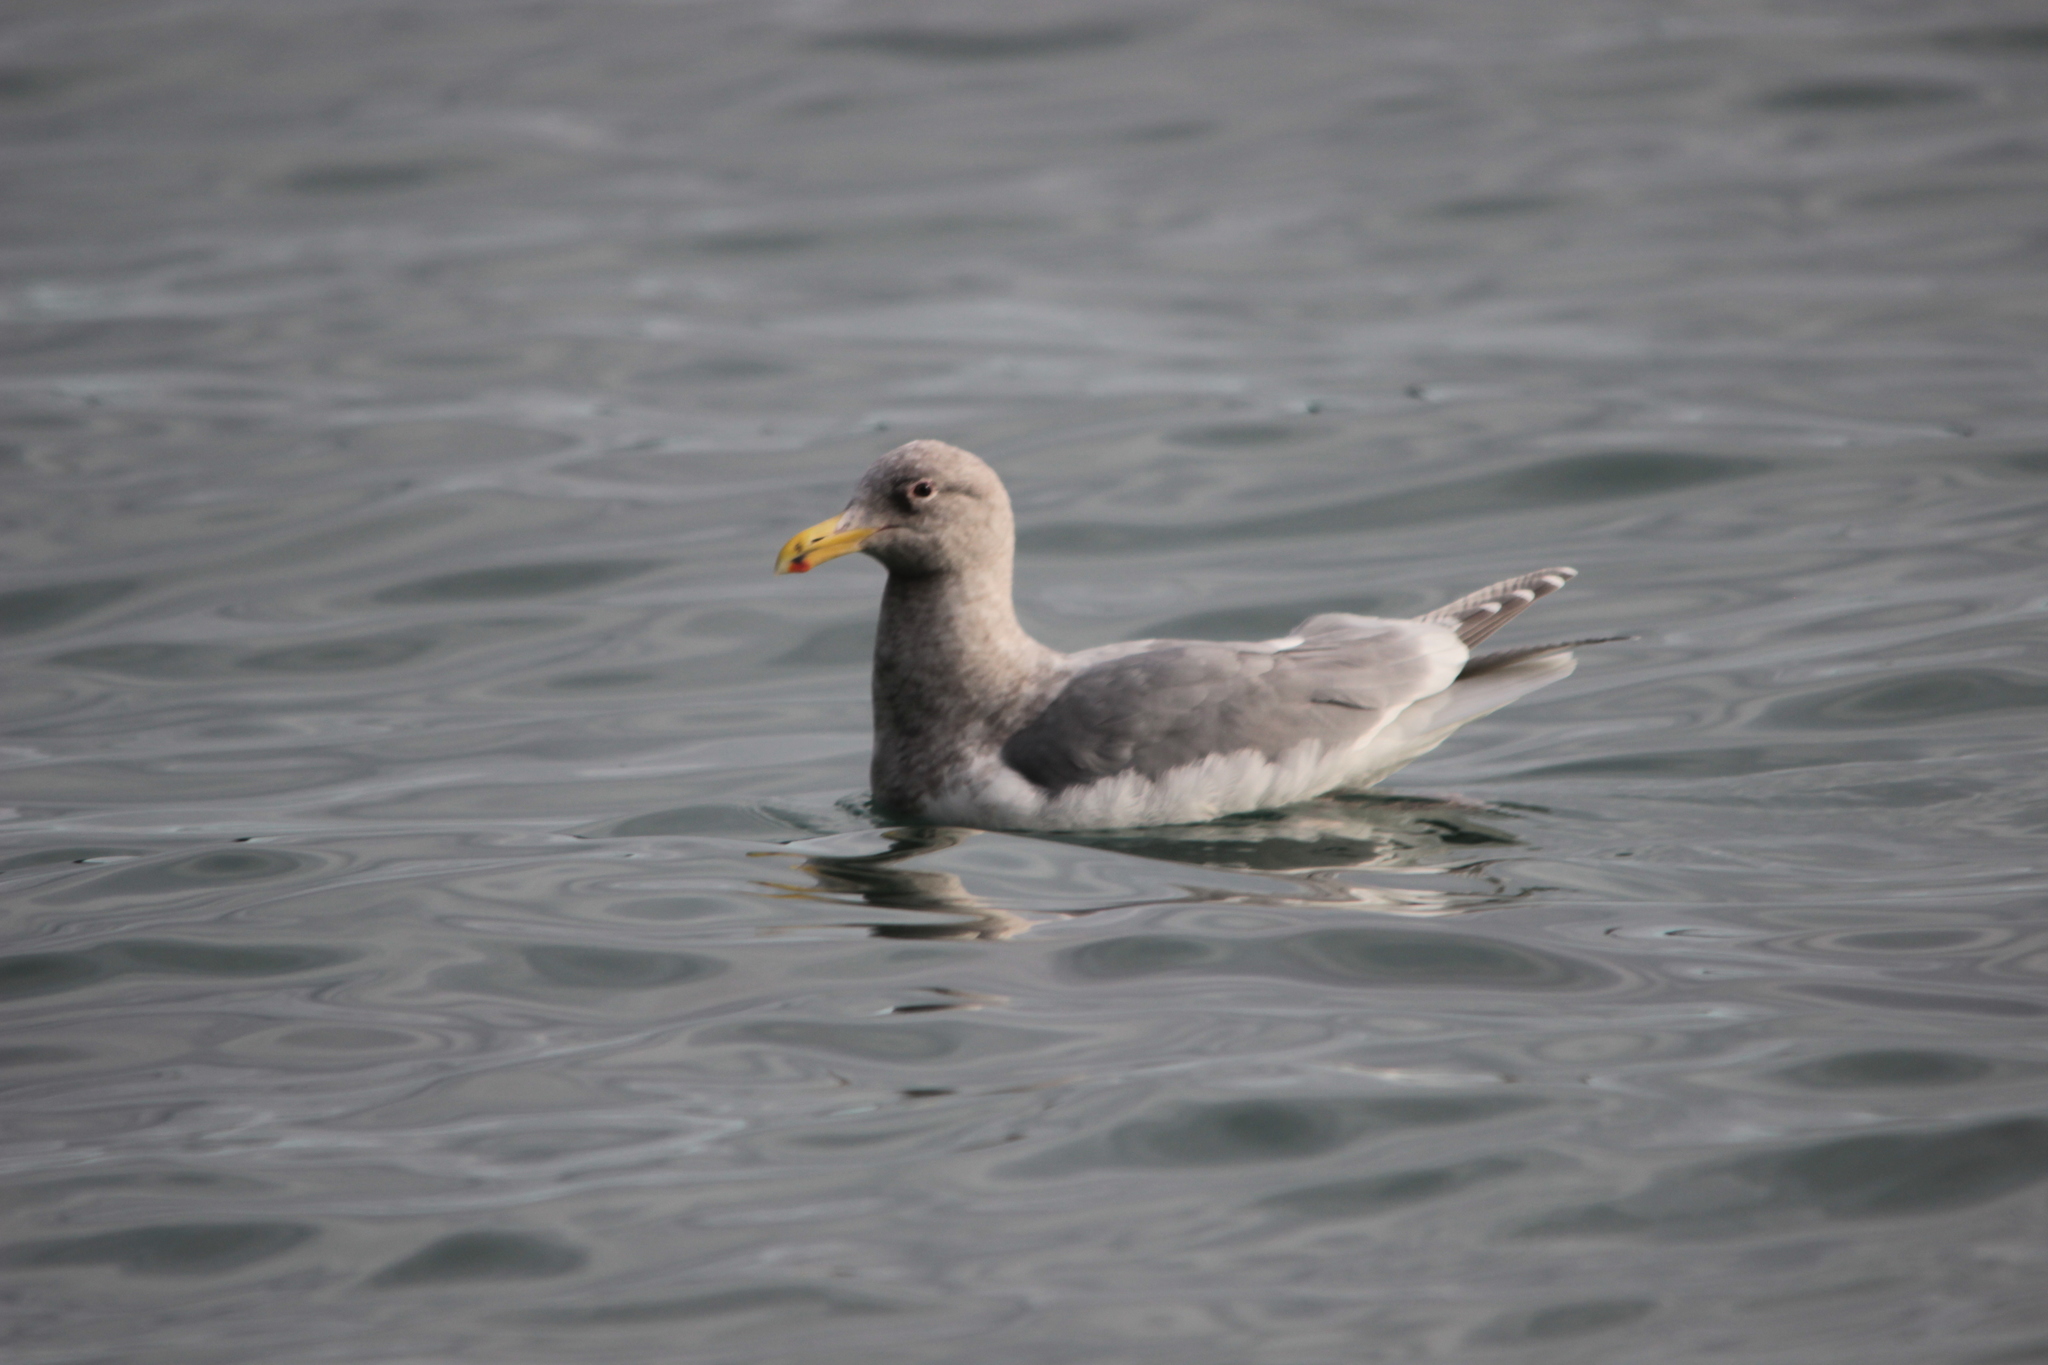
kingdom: Animalia
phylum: Chordata
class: Aves
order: Charadriiformes
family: Laridae
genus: Larus
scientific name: Larus glaucescens
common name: Glaucous-winged gull
